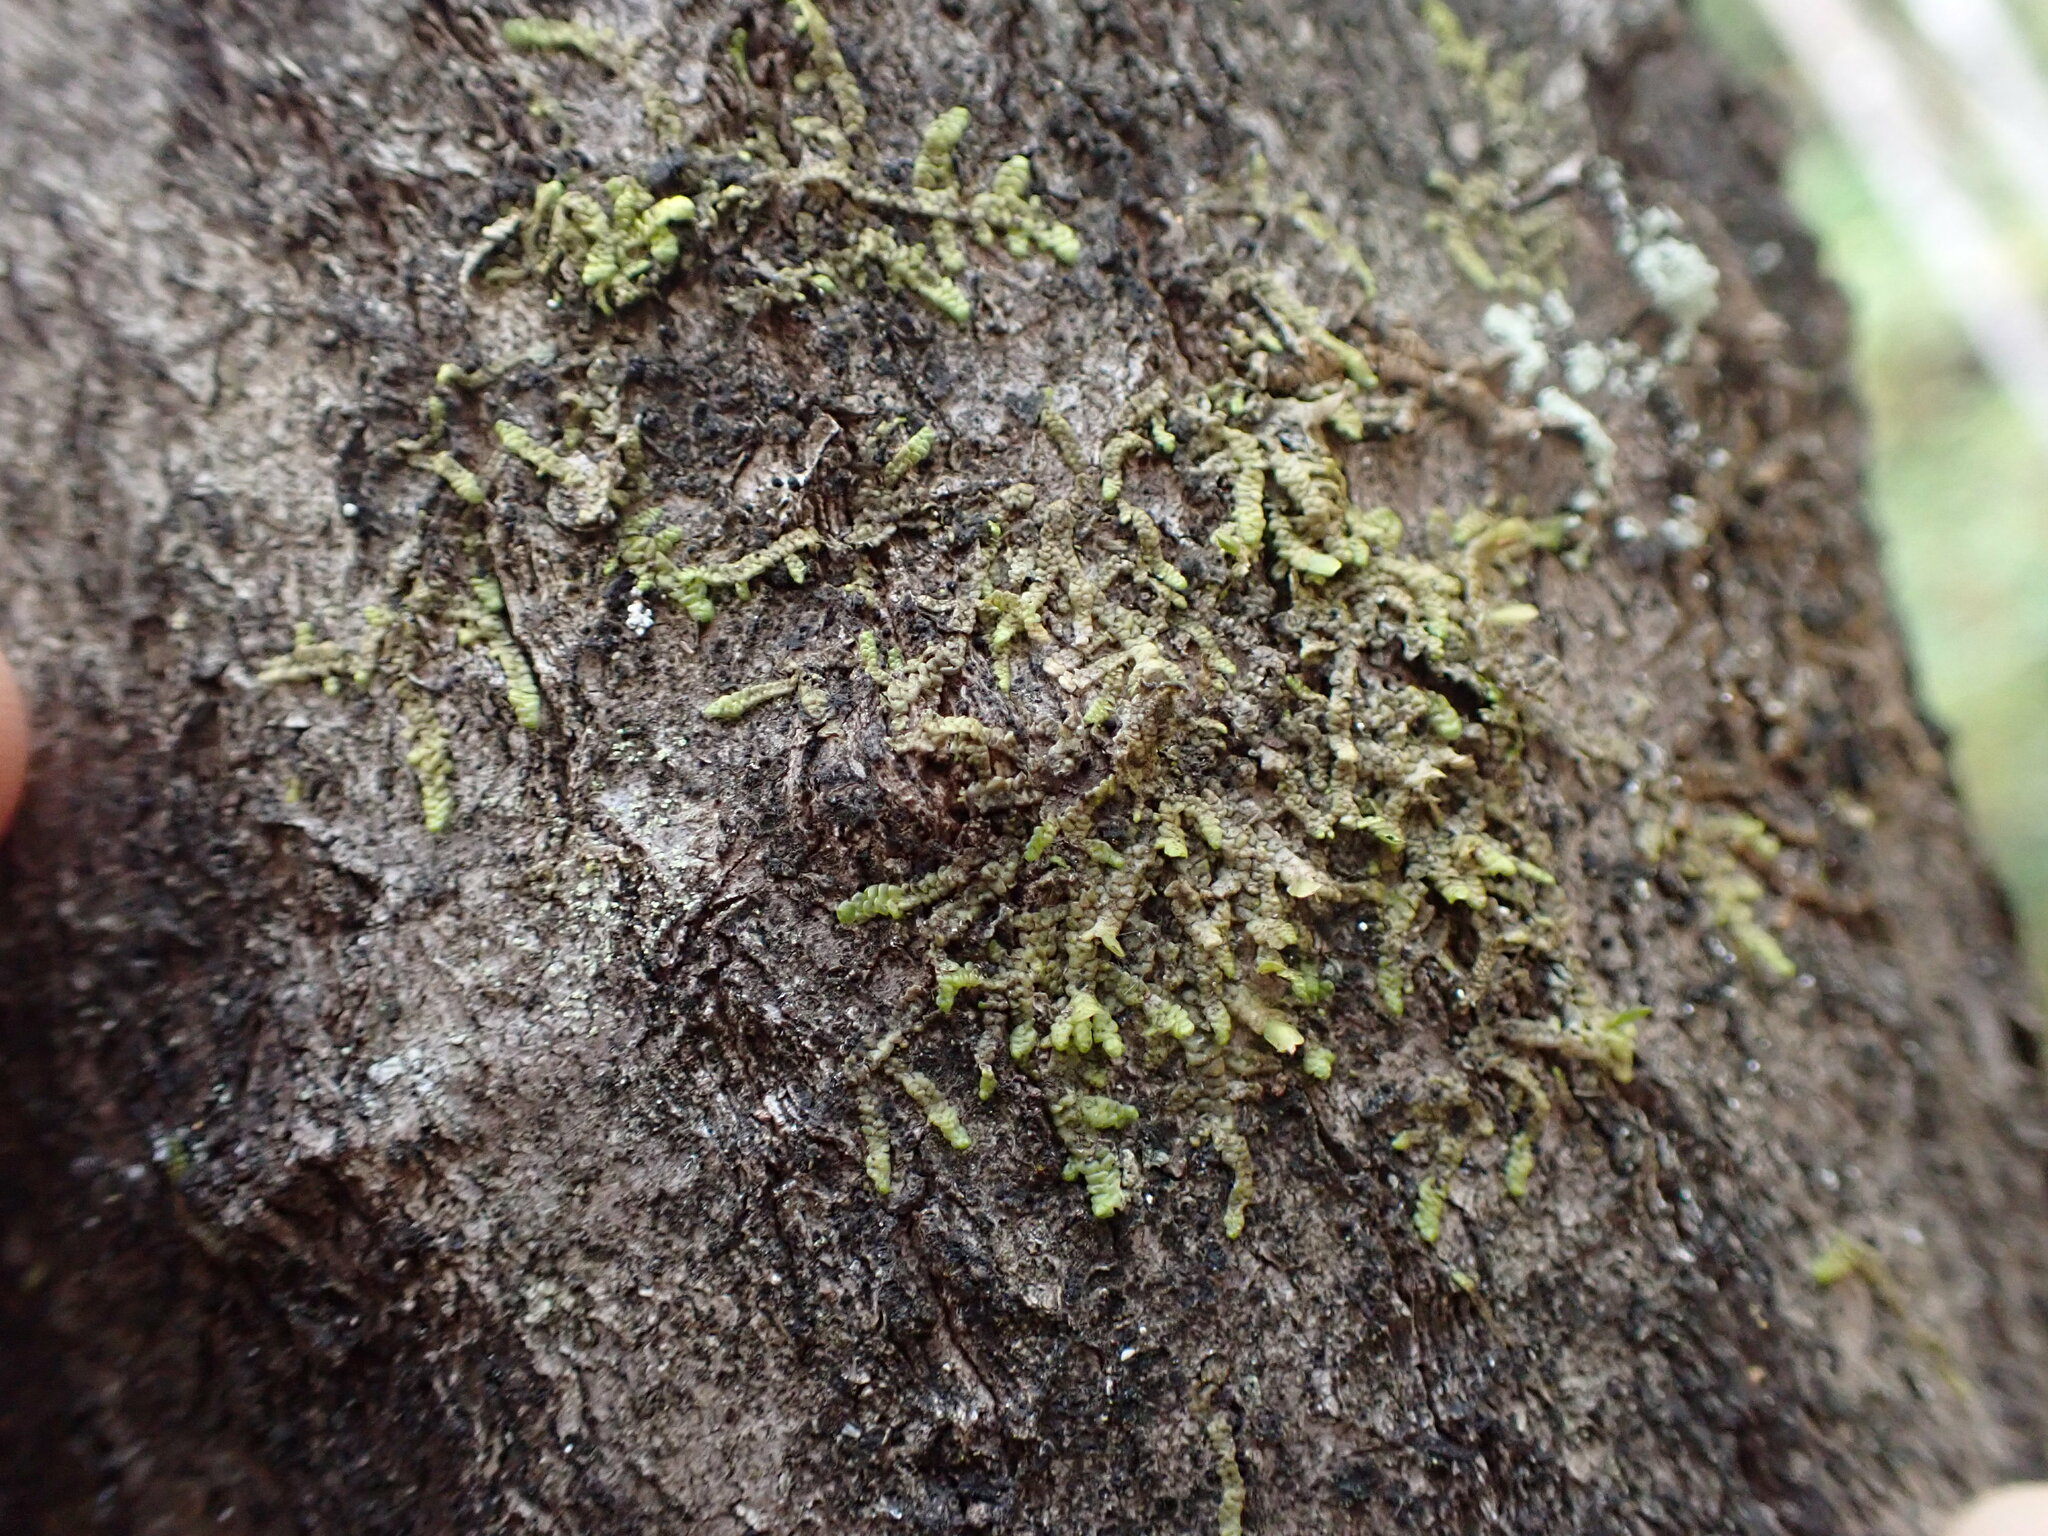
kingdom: Plantae
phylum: Marchantiophyta
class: Jungermanniopsida
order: Porellales
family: Radulaceae
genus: Radula
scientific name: Radula complanata
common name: Flat-leaved scalewort
